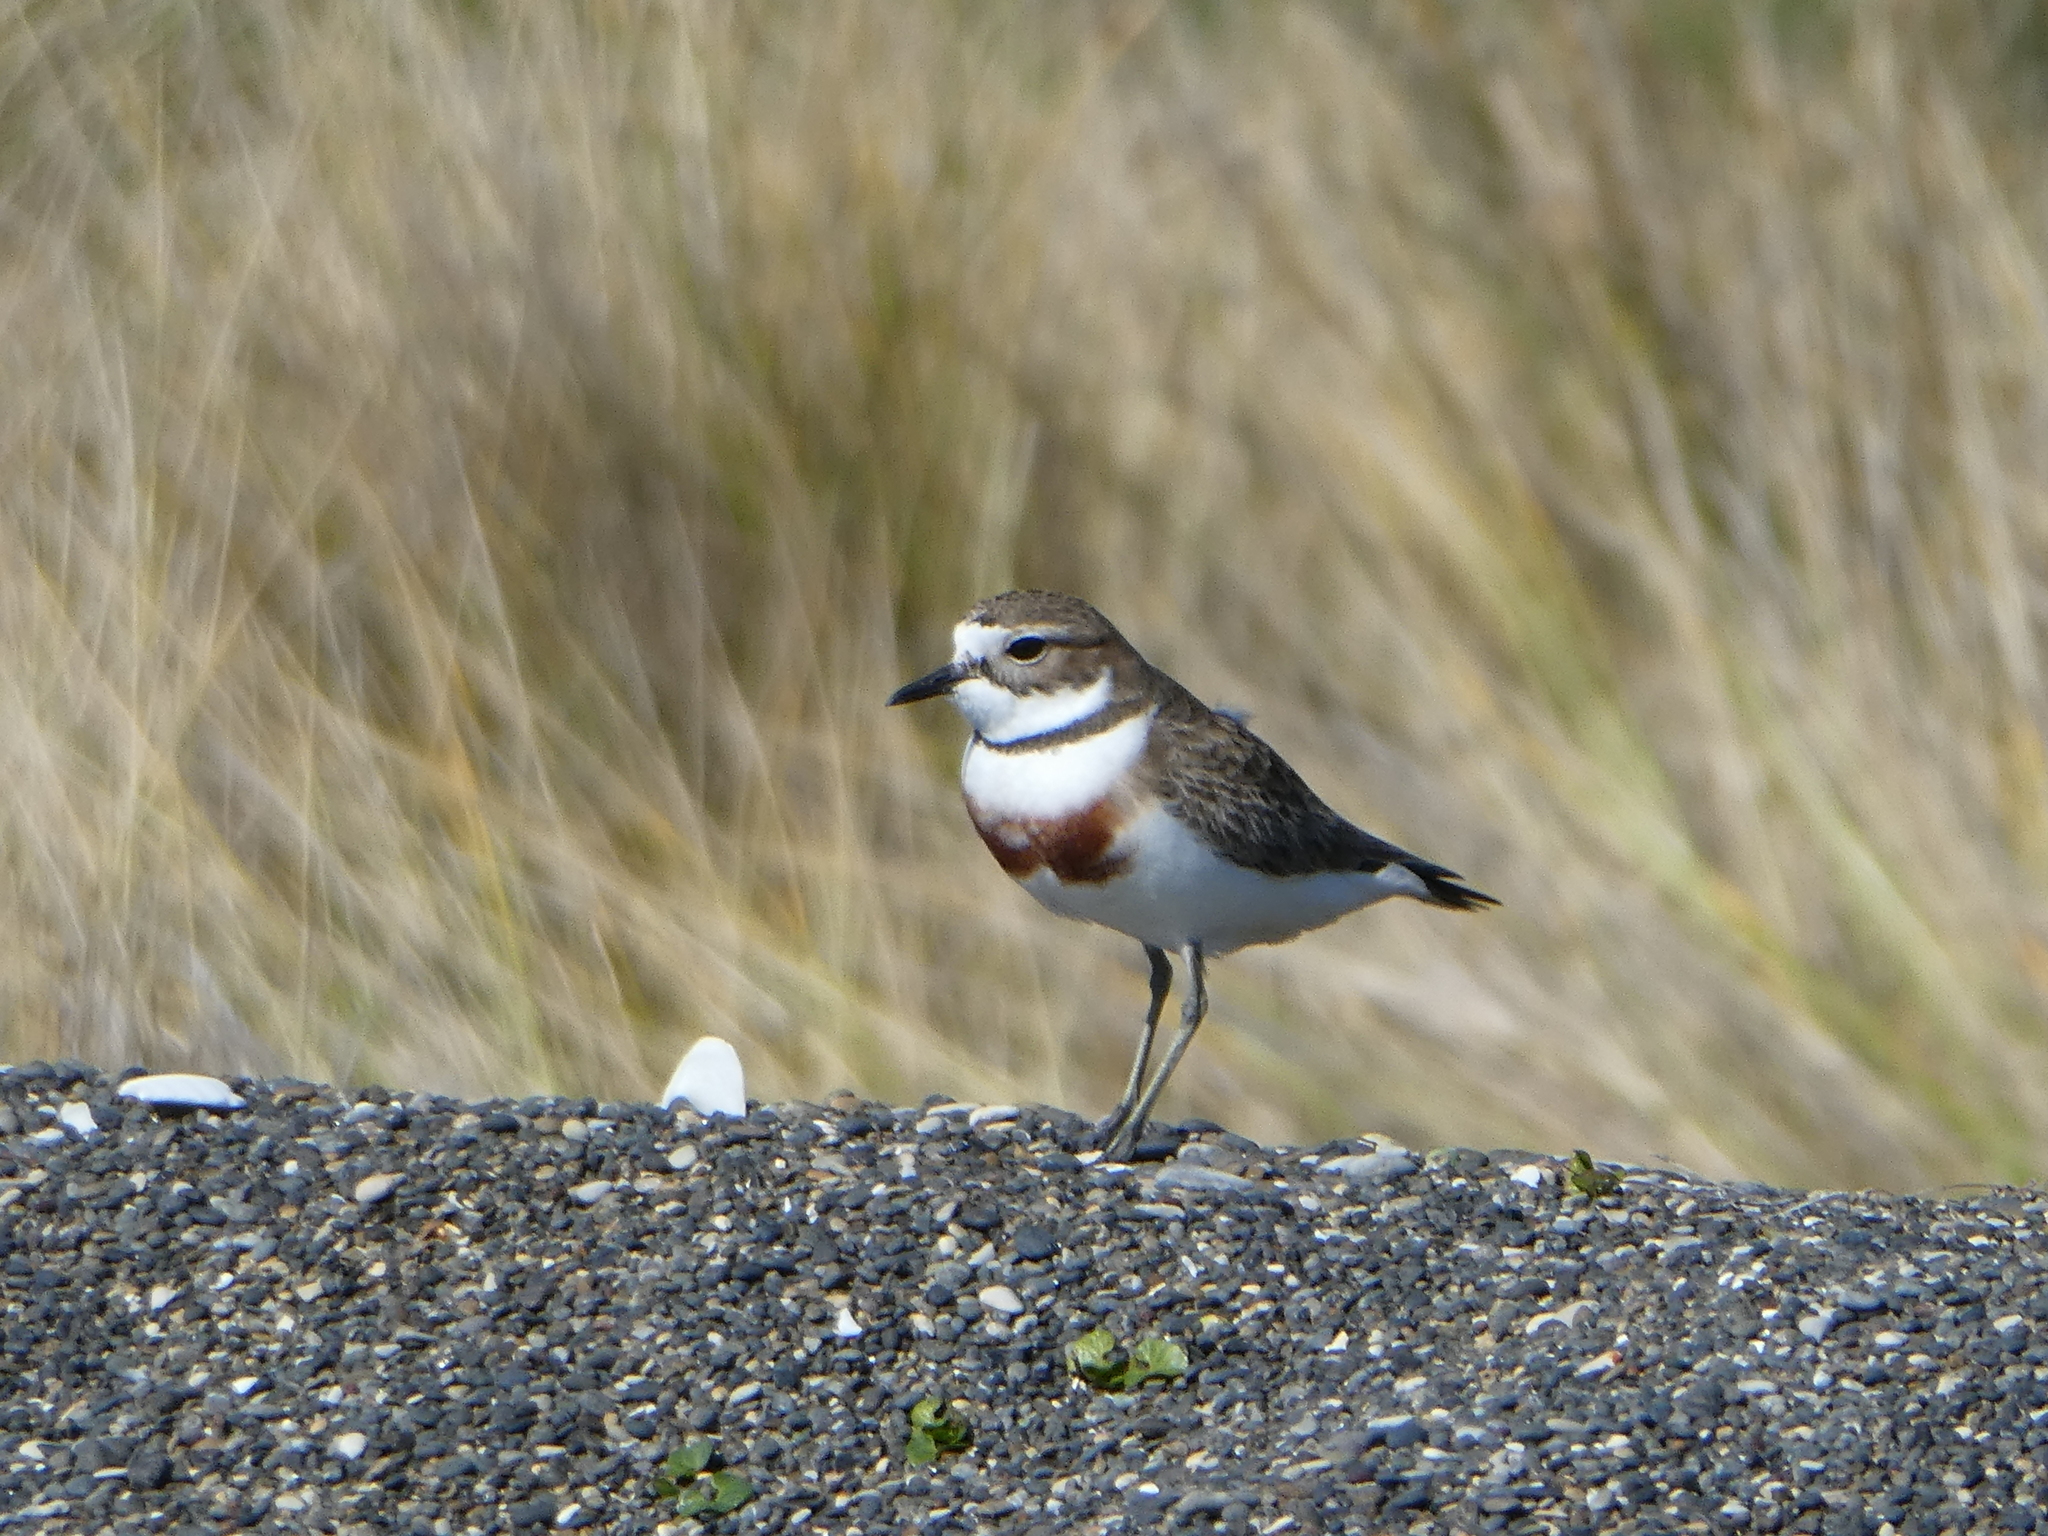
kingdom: Animalia
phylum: Chordata
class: Aves
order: Charadriiformes
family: Charadriidae
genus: Anarhynchus
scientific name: Anarhynchus
